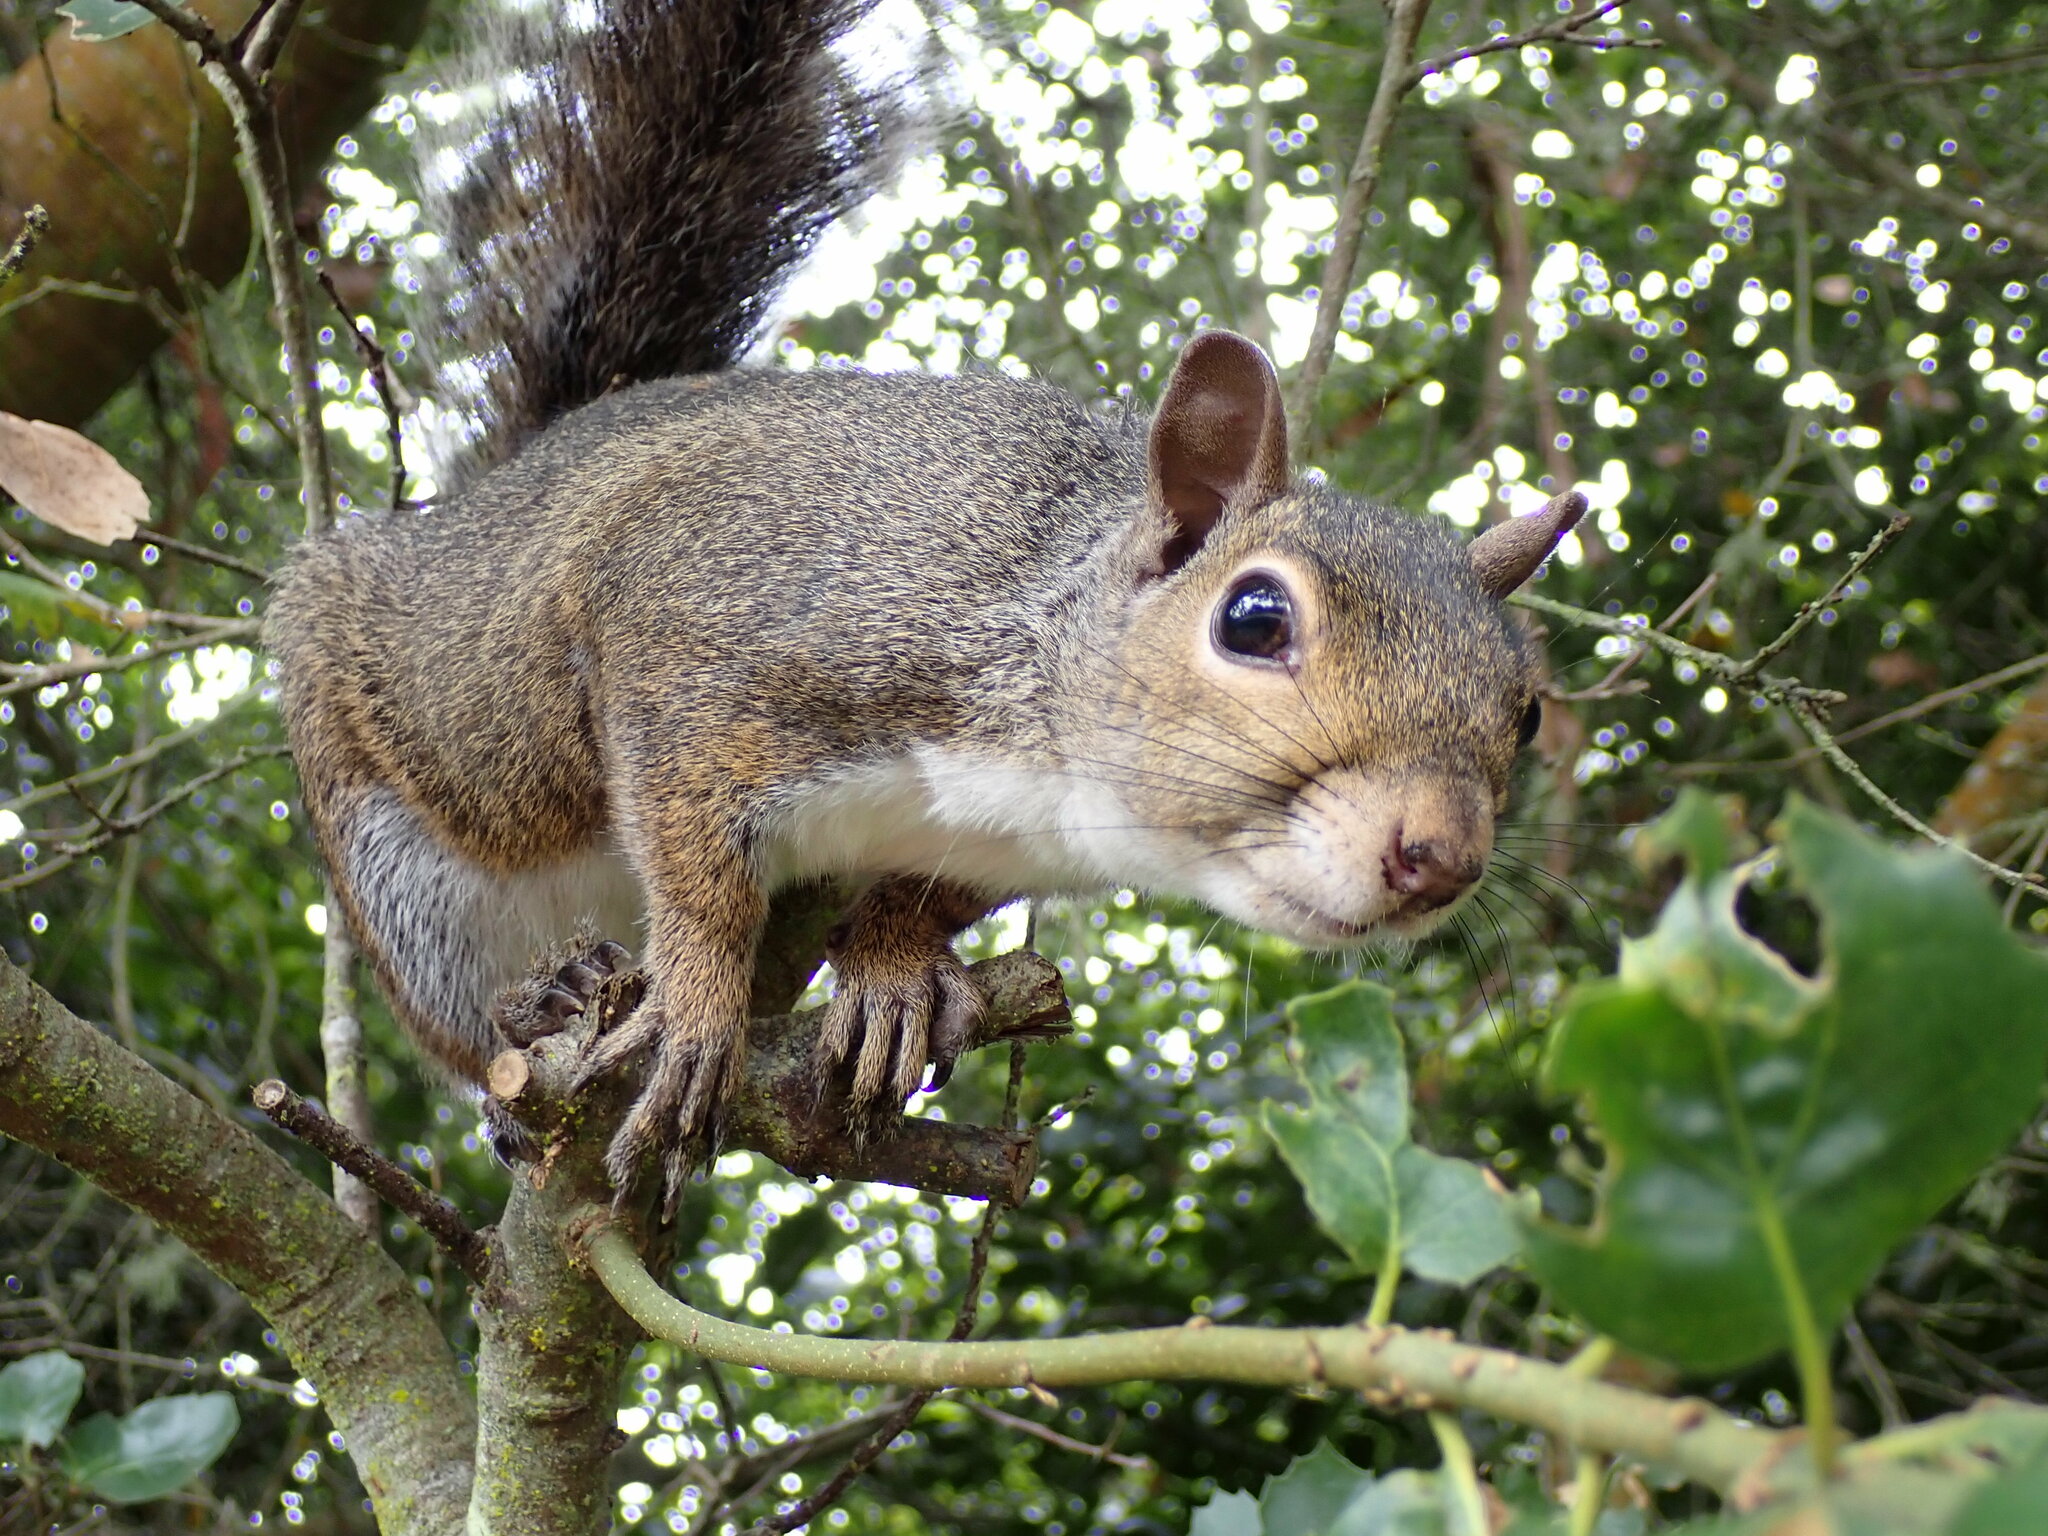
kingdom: Animalia
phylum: Chordata
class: Mammalia
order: Rodentia
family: Sciuridae
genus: Sciurus
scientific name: Sciurus carolinensis
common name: Eastern gray squirrel
